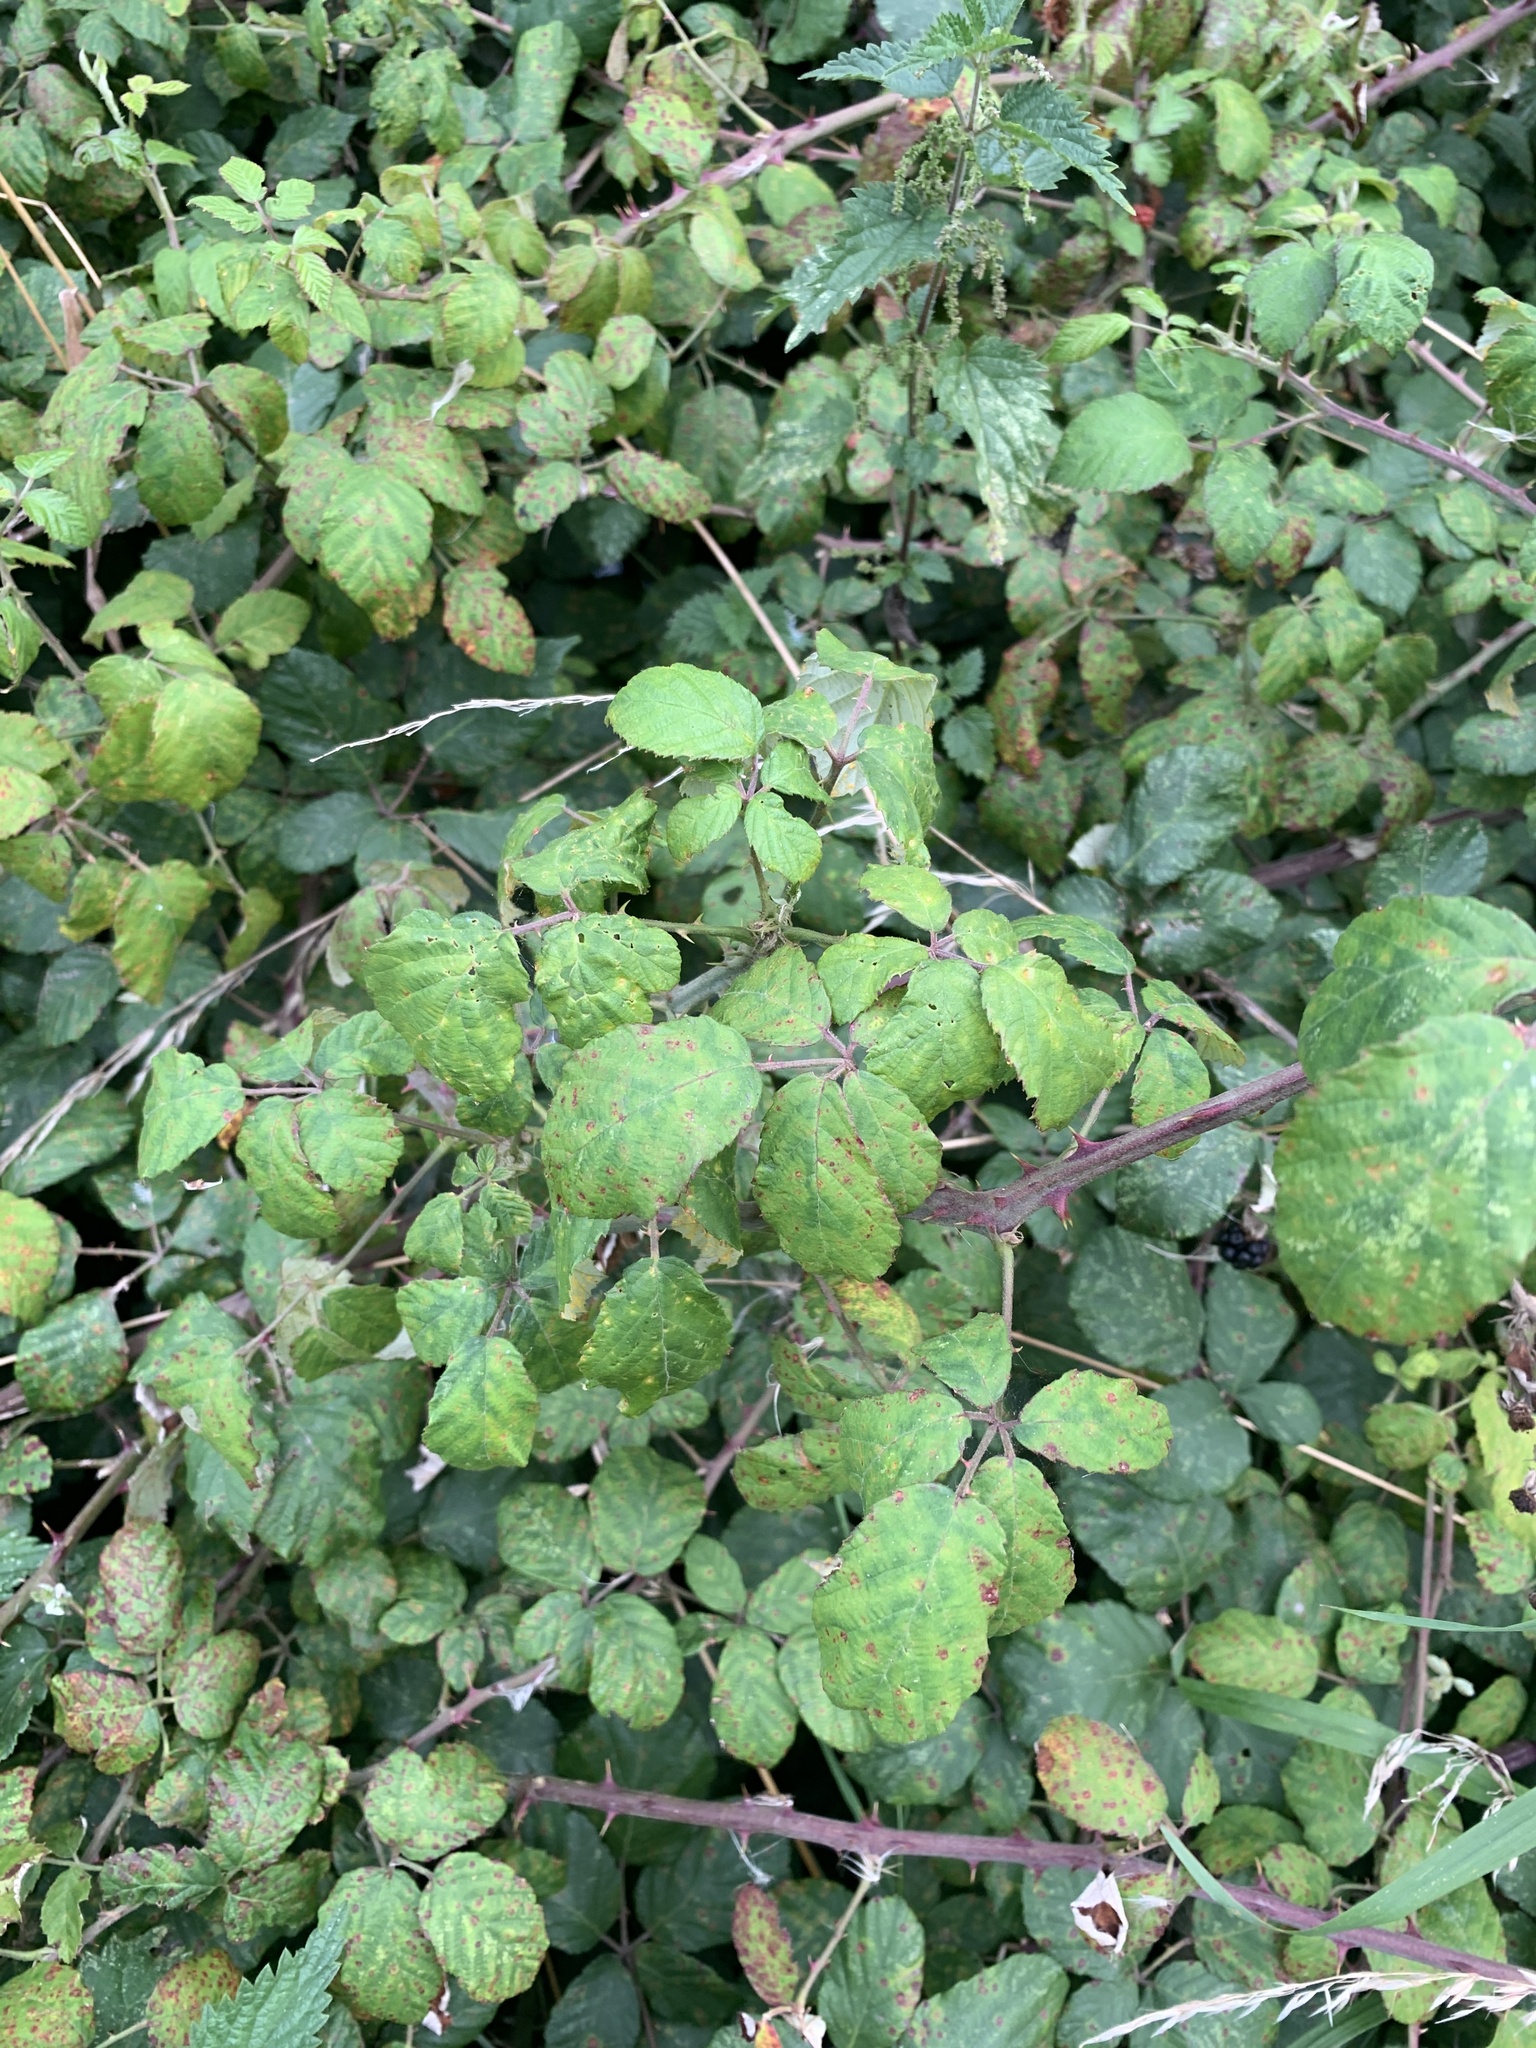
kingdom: Plantae
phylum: Tracheophyta
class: Magnoliopsida
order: Rosales
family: Rosaceae
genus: Rubus
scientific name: Rubus ulmifolius
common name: Elmleaf blackberry
